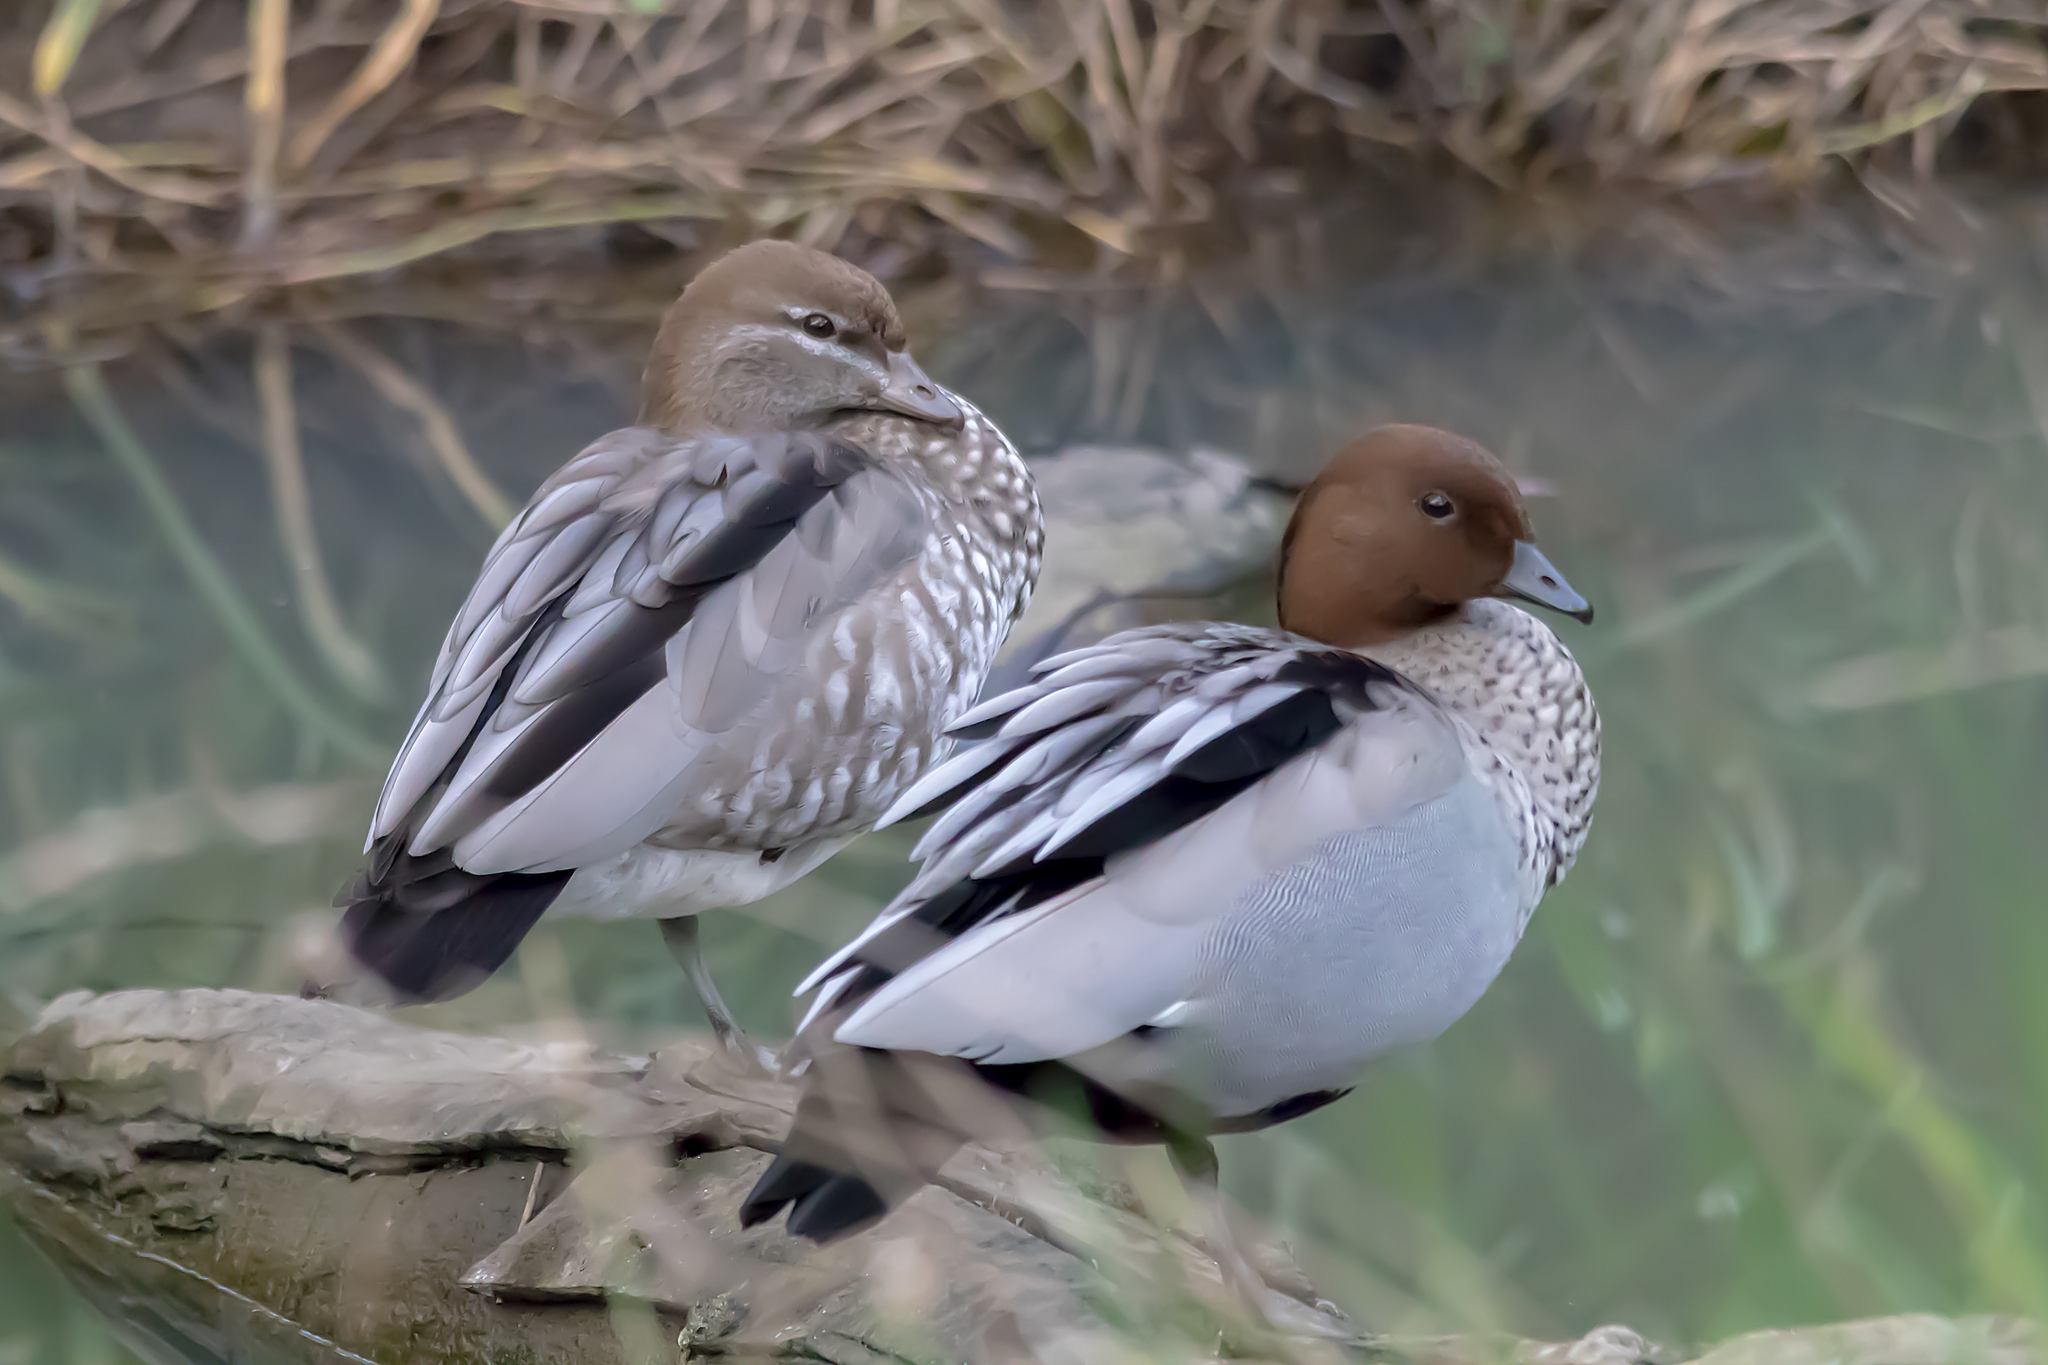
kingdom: Animalia
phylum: Chordata
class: Aves
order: Anseriformes
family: Anatidae
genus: Chenonetta
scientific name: Chenonetta jubata
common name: Maned duck
